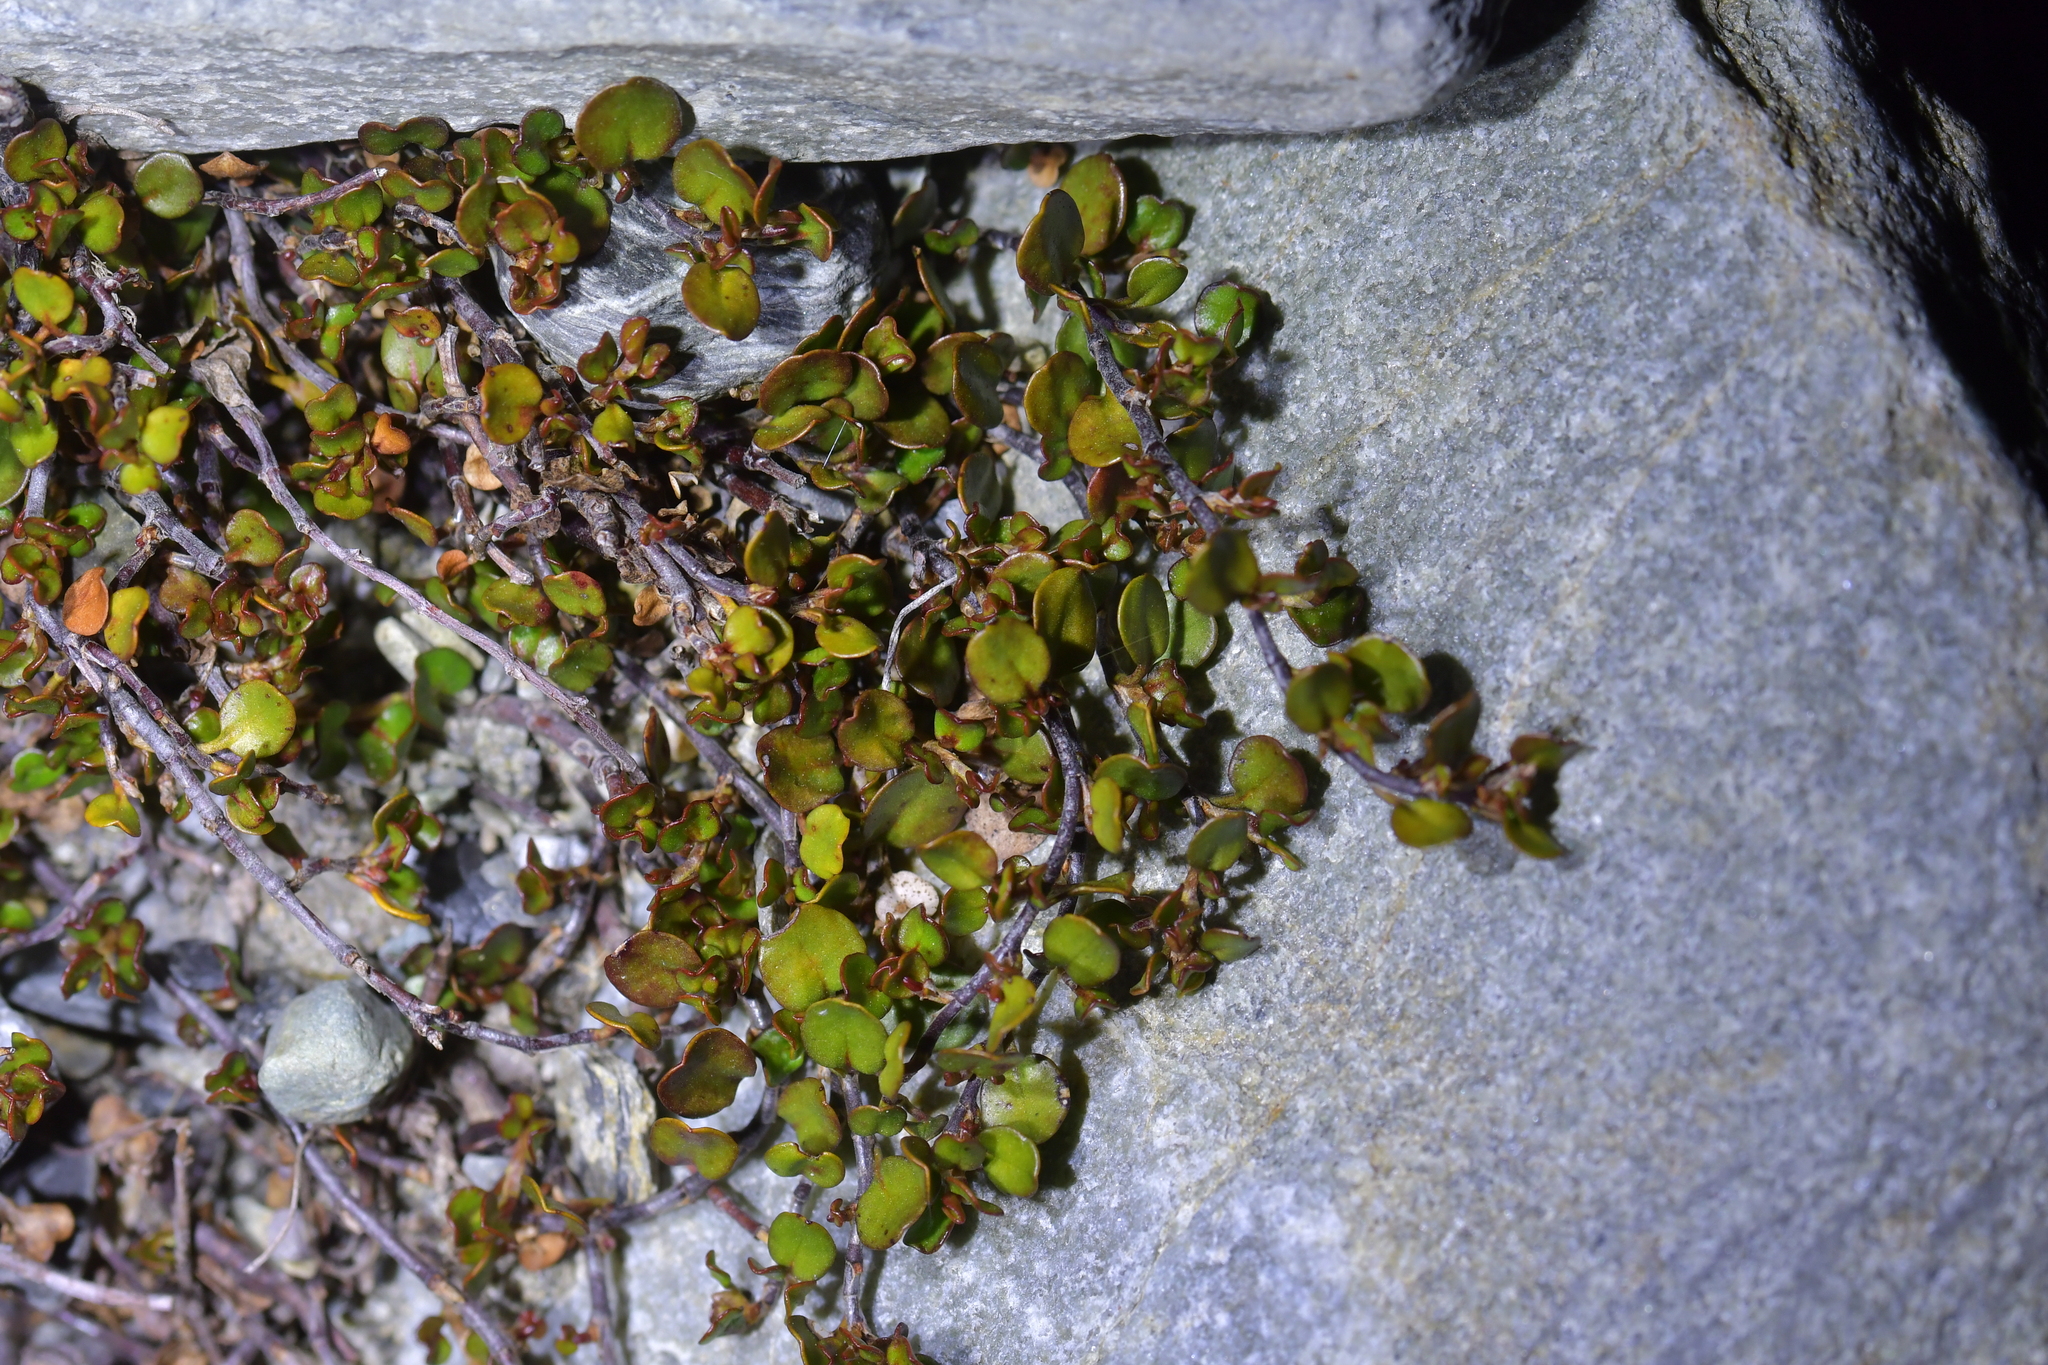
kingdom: Plantae
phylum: Tracheophyta
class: Magnoliopsida
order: Caryophyllales
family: Polygonaceae
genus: Muehlenbeckia
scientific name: Muehlenbeckia axillaris
